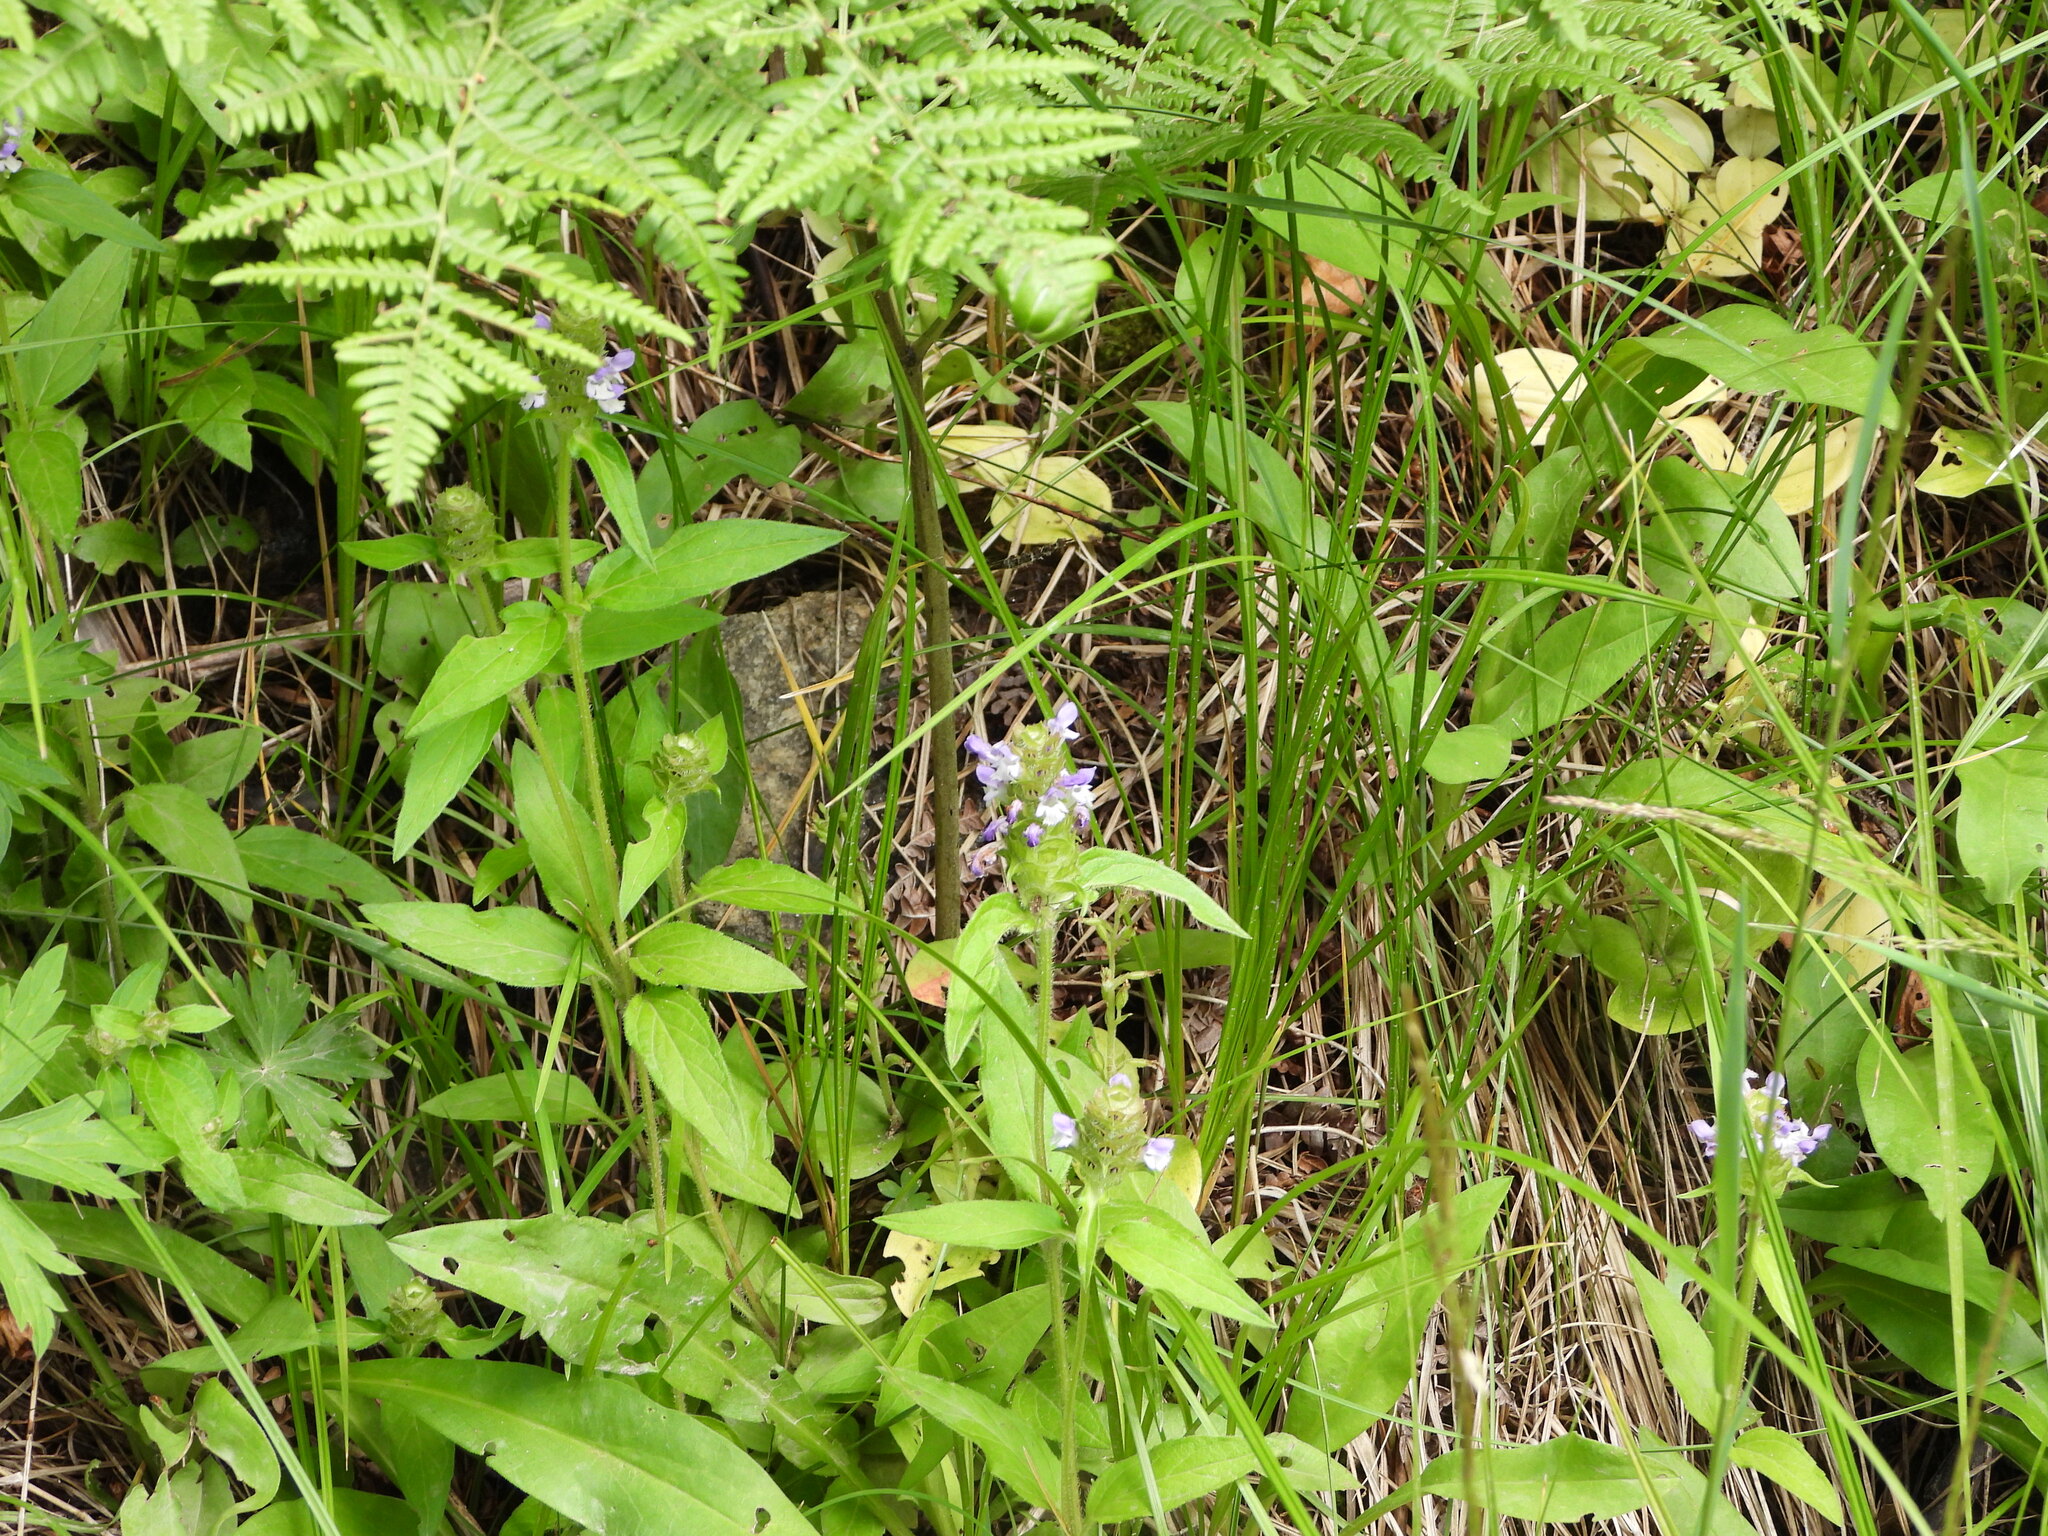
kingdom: Plantae
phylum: Tracheophyta
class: Magnoliopsida
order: Lamiales
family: Lamiaceae
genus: Prunella
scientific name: Prunella vulgaris
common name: Heal-all
